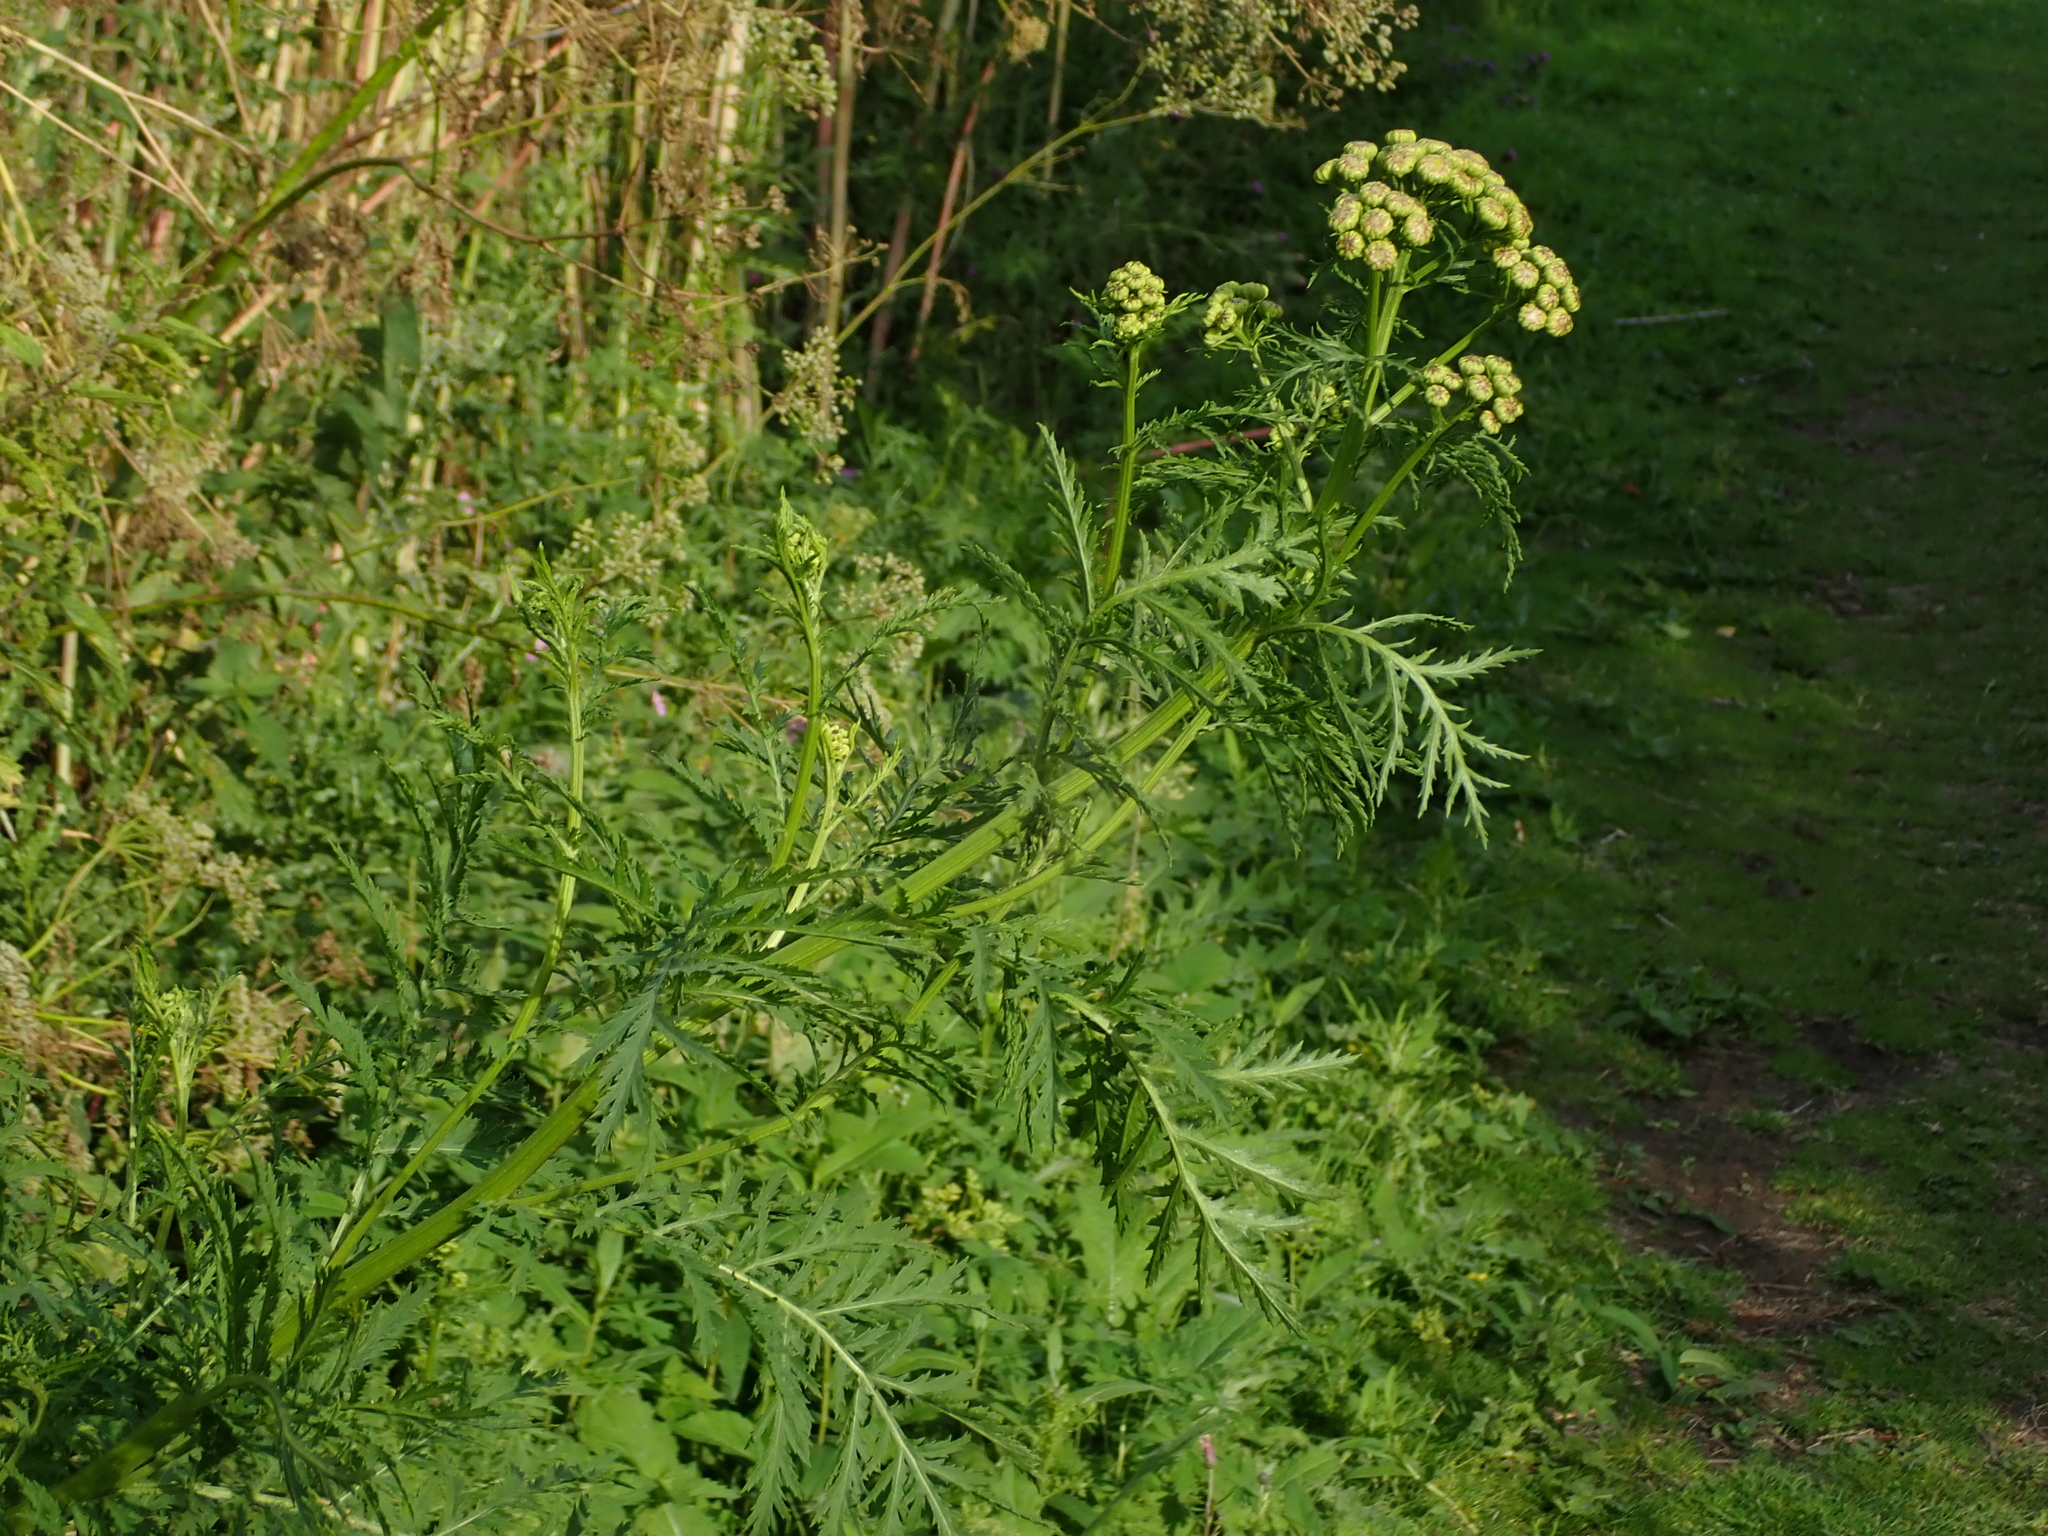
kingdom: Plantae
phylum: Tracheophyta
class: Magnoliopsida
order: Asterales
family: Asteraceae
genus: Tanacetum
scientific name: Tanacetum vulgare
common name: Common tansy
